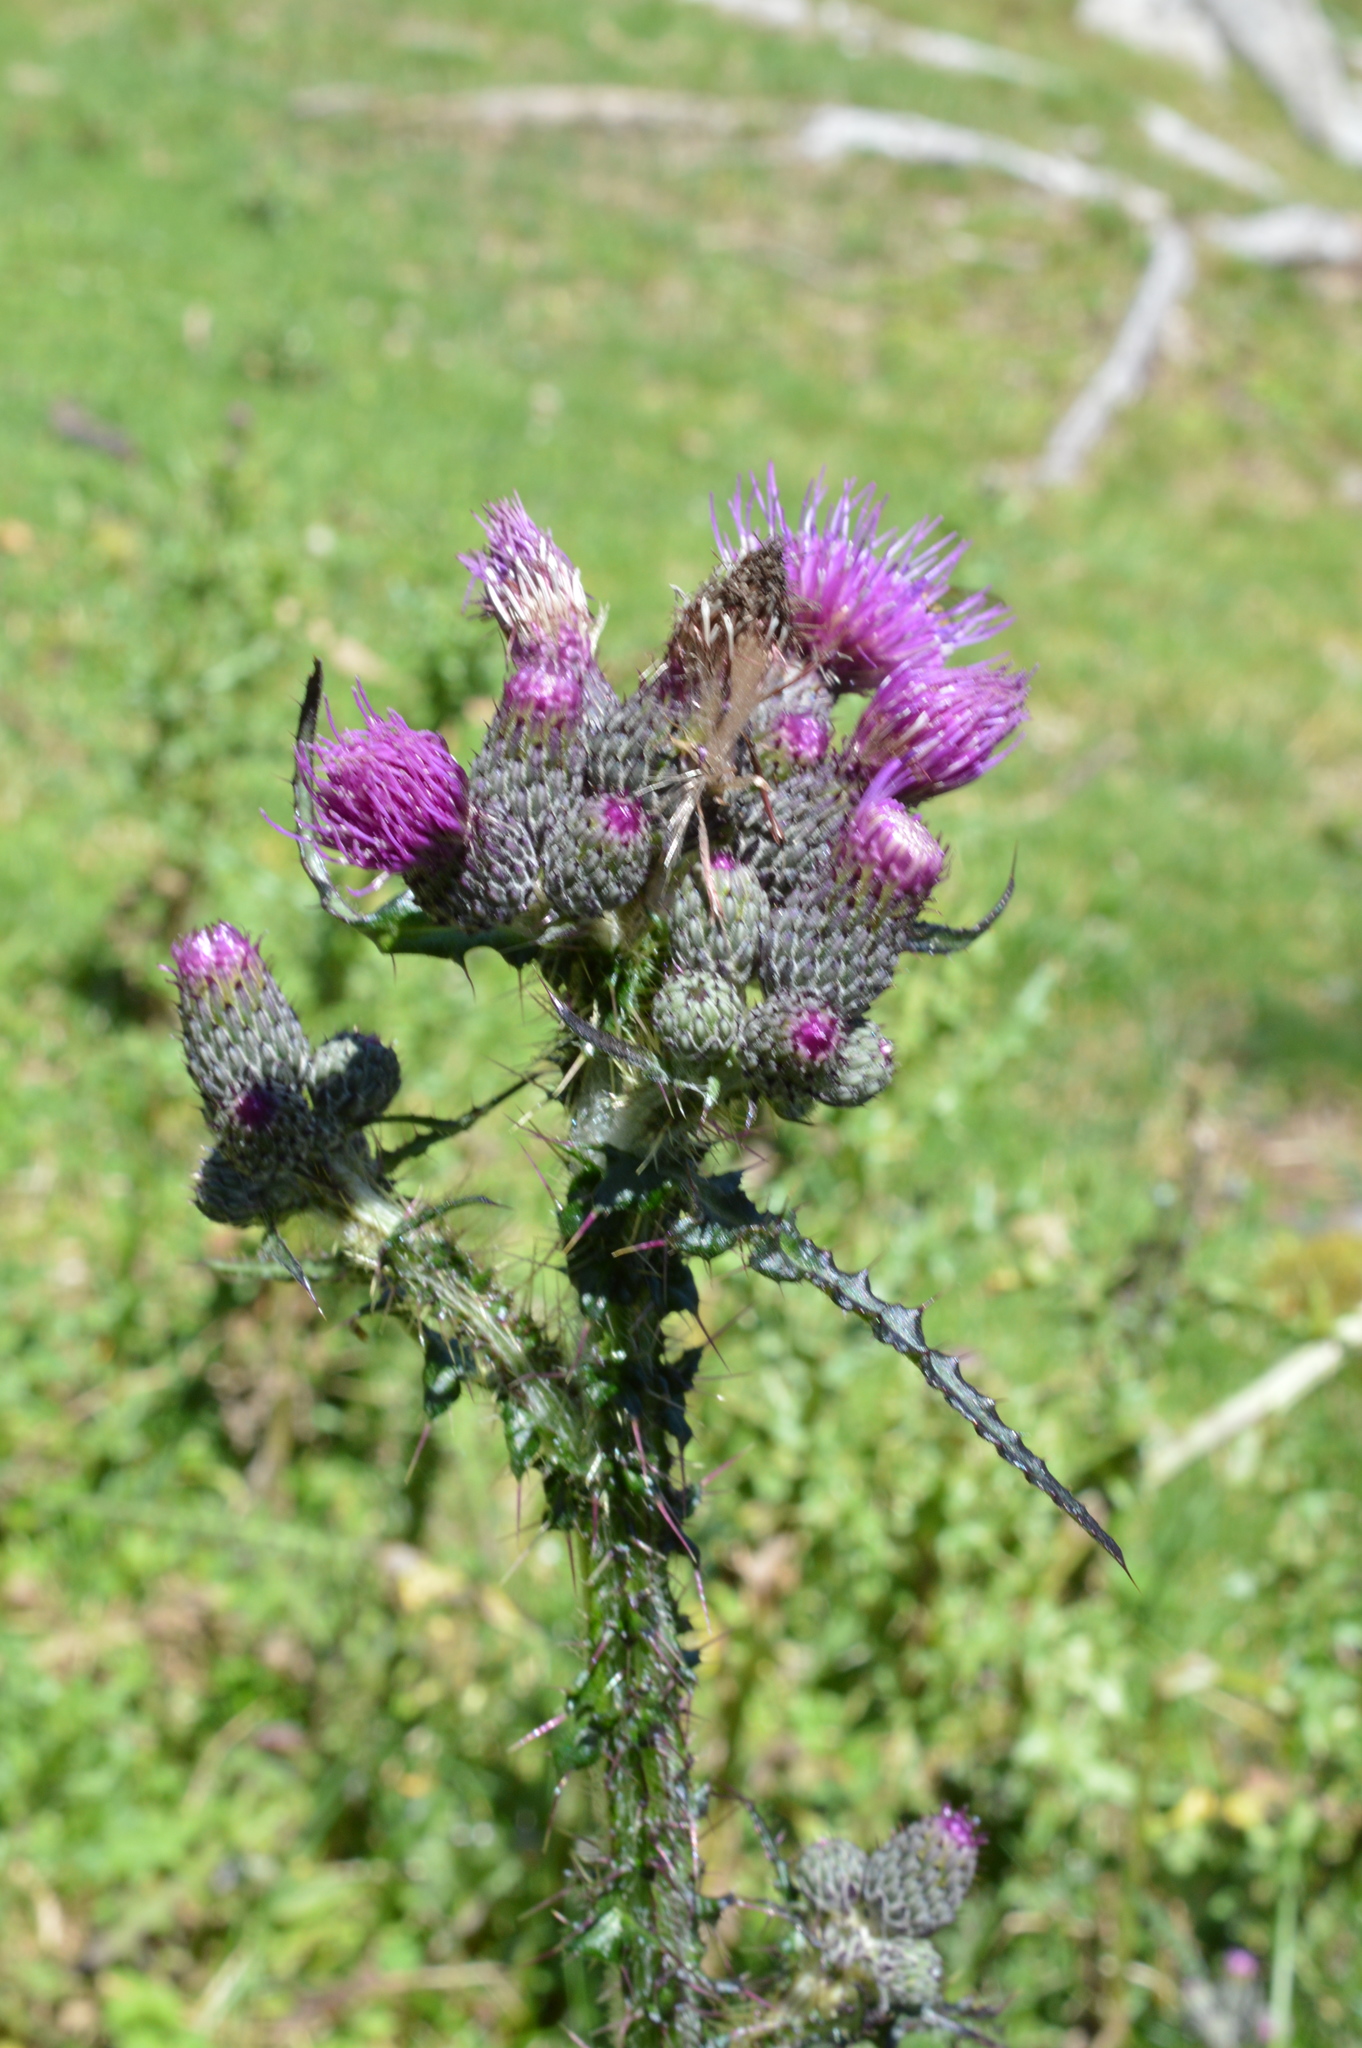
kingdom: Plantae
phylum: Tracheophyta
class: Magnoliopsida
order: Asterales
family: Asteraceae
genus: Cirsium
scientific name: Cirsium palustre
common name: Marsh thistle
